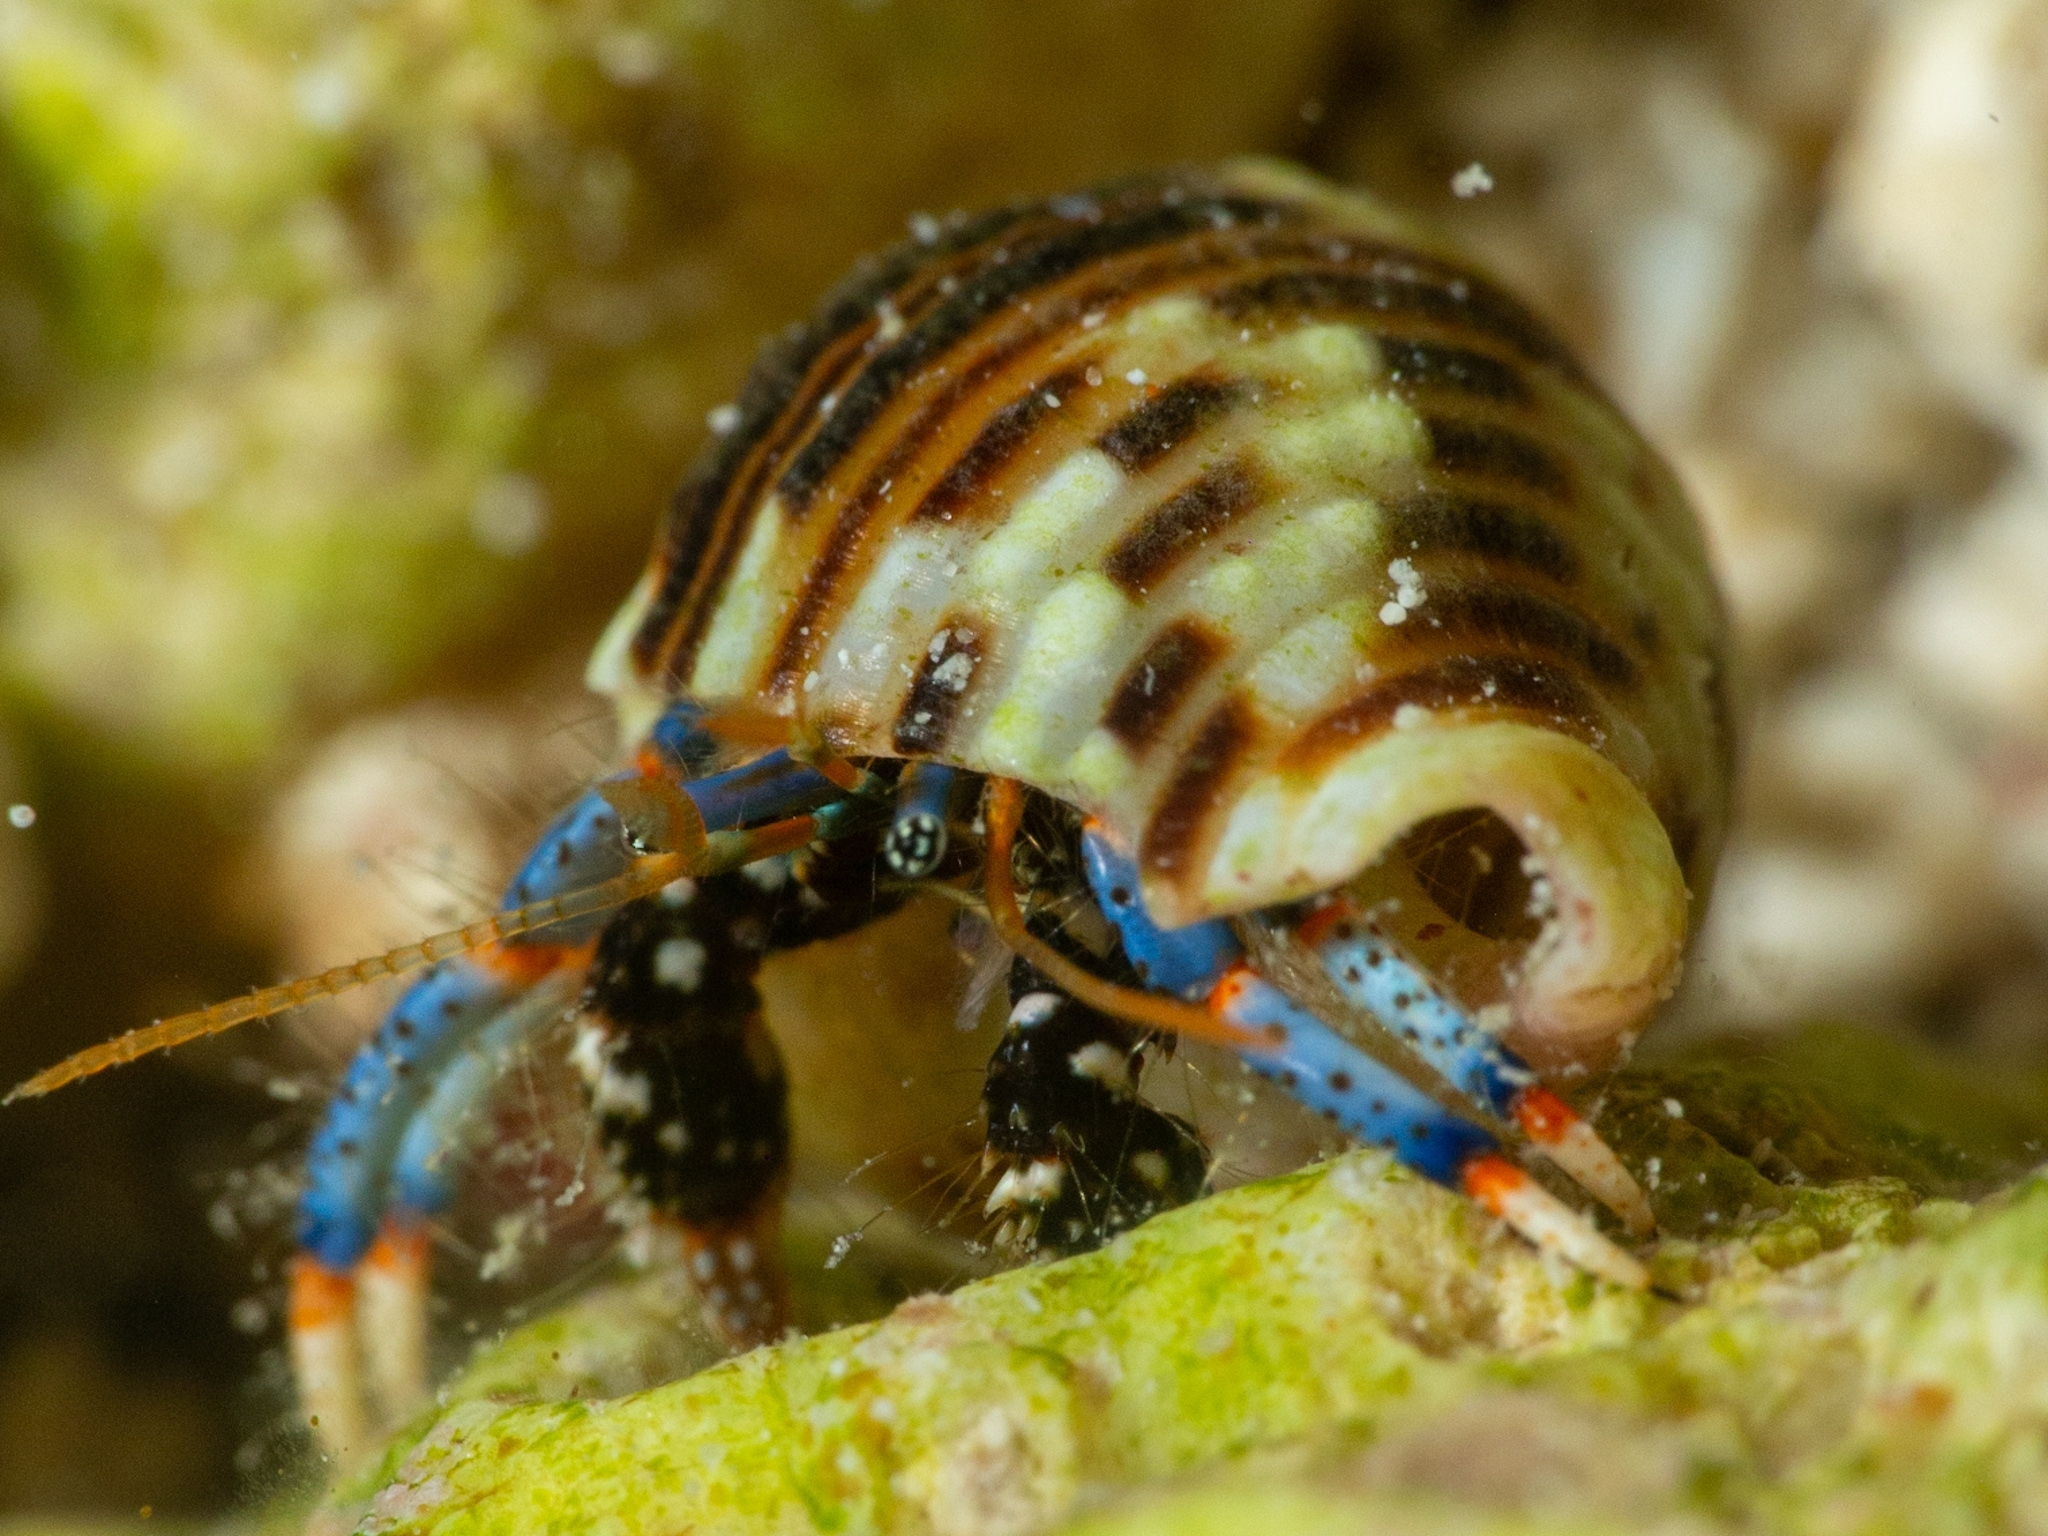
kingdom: Animalia
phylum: Arthropoda
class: Malacostraca
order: Decapoda
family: Diogenidae
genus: Clibanarius
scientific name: Clibanarius tricolor
